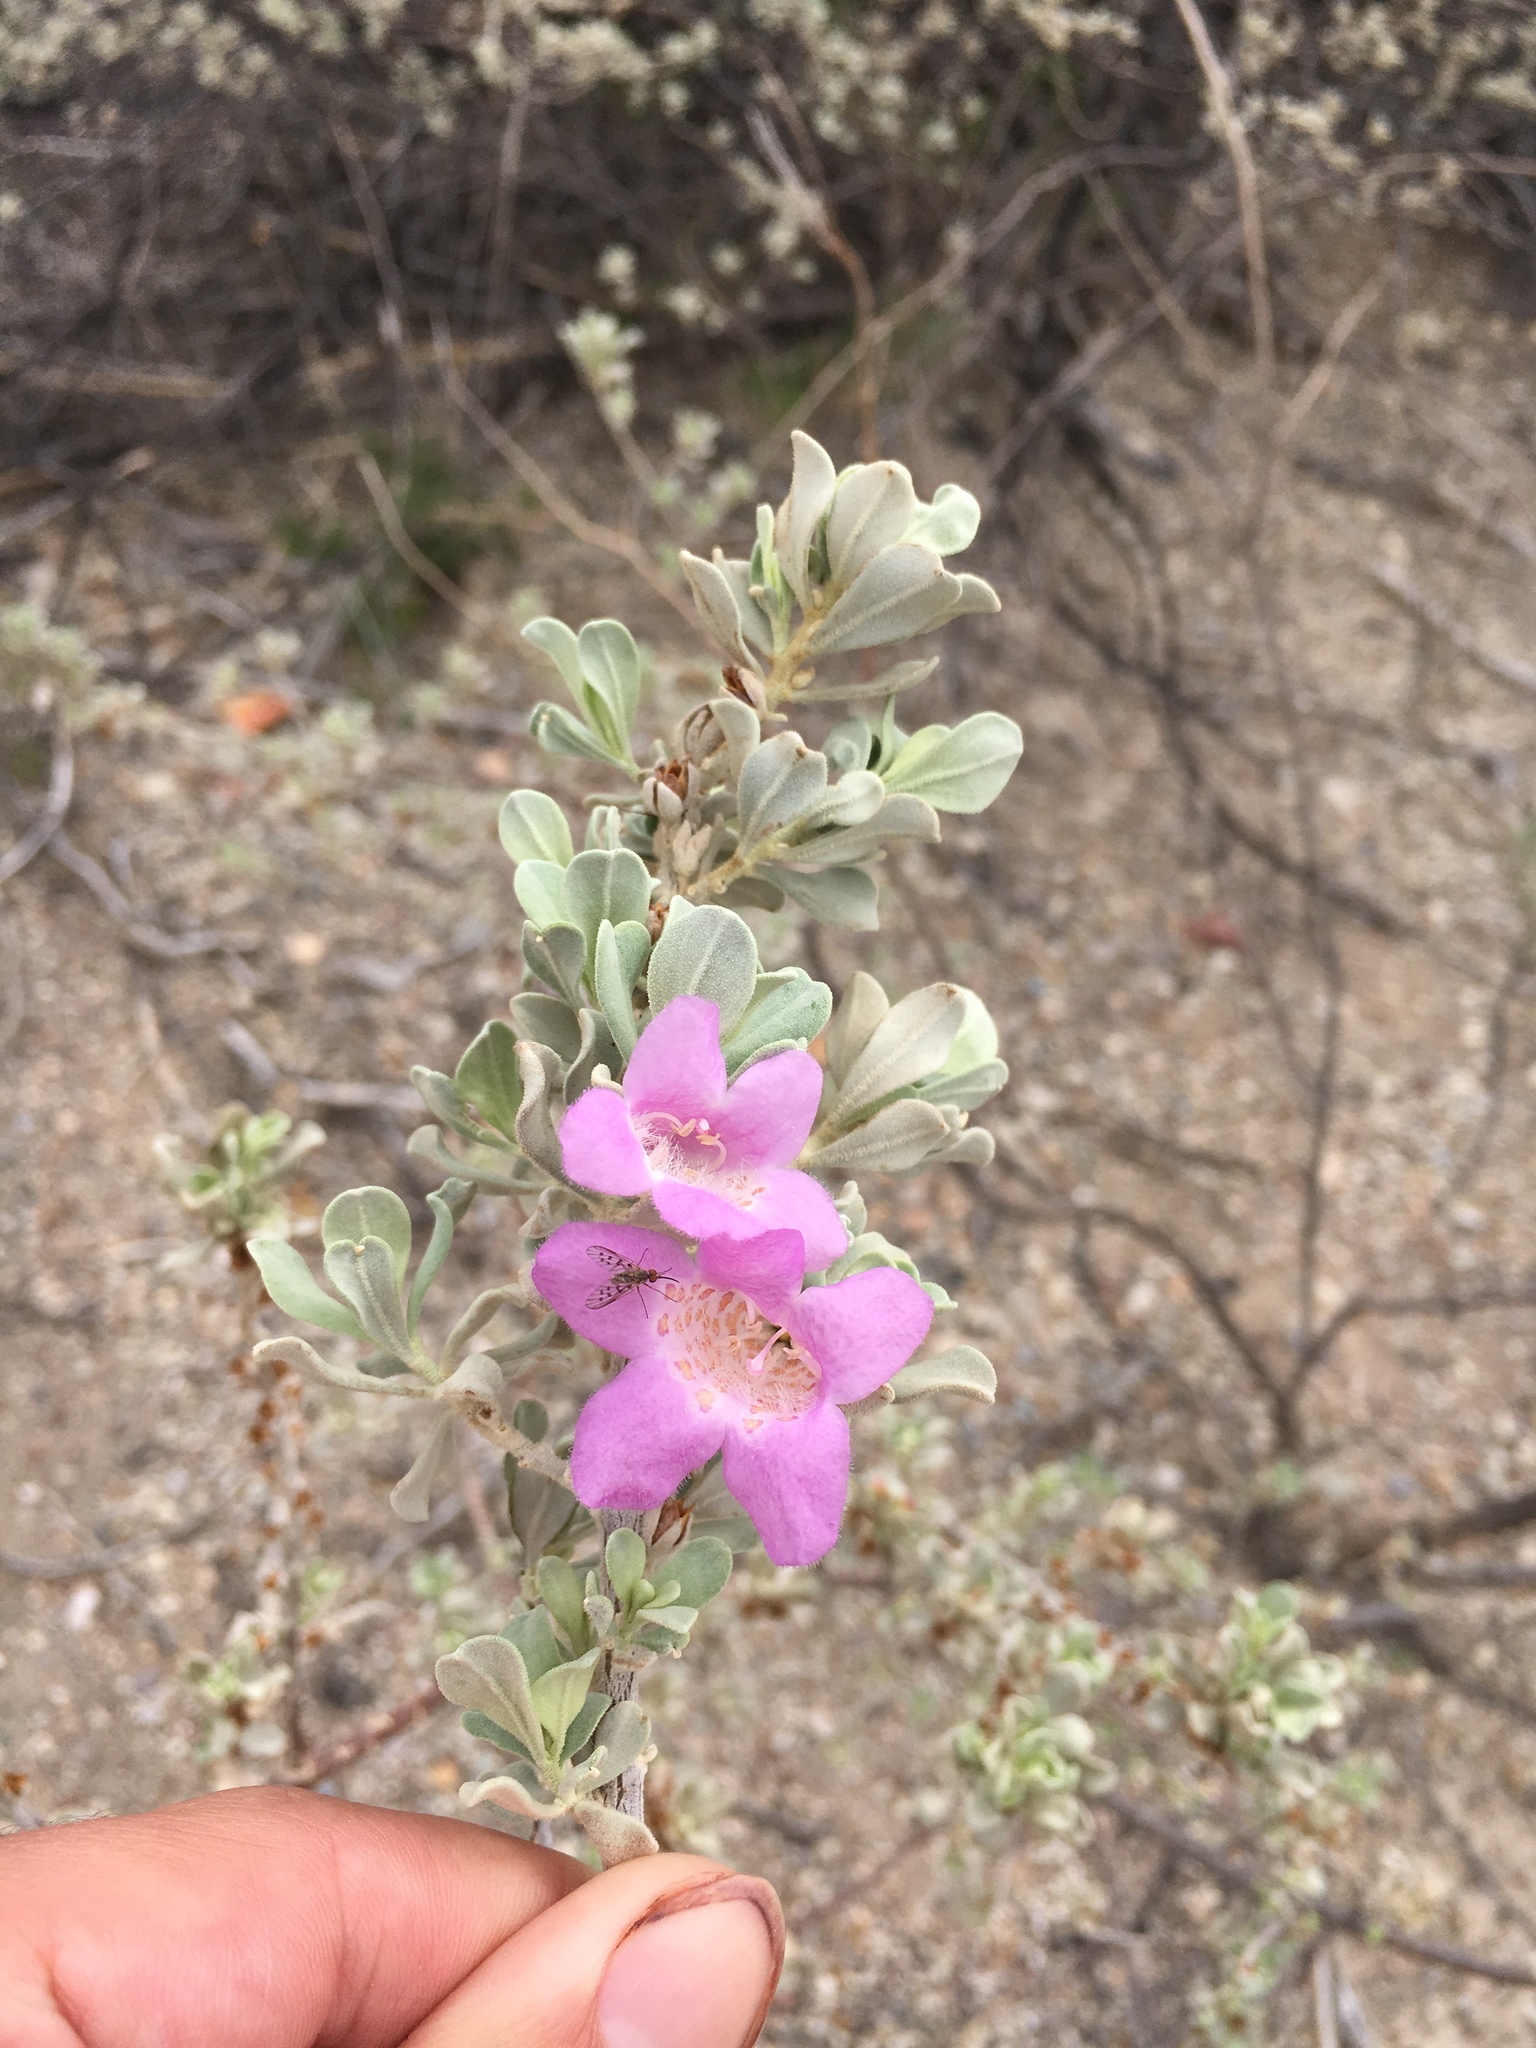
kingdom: Plantae
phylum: Tracheophyta
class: Magnoliopsida
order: Lamiales
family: Scrophulariaceae
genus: Leucophyllum
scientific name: Leucophyllum frutescens
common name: Texas silverleaf
